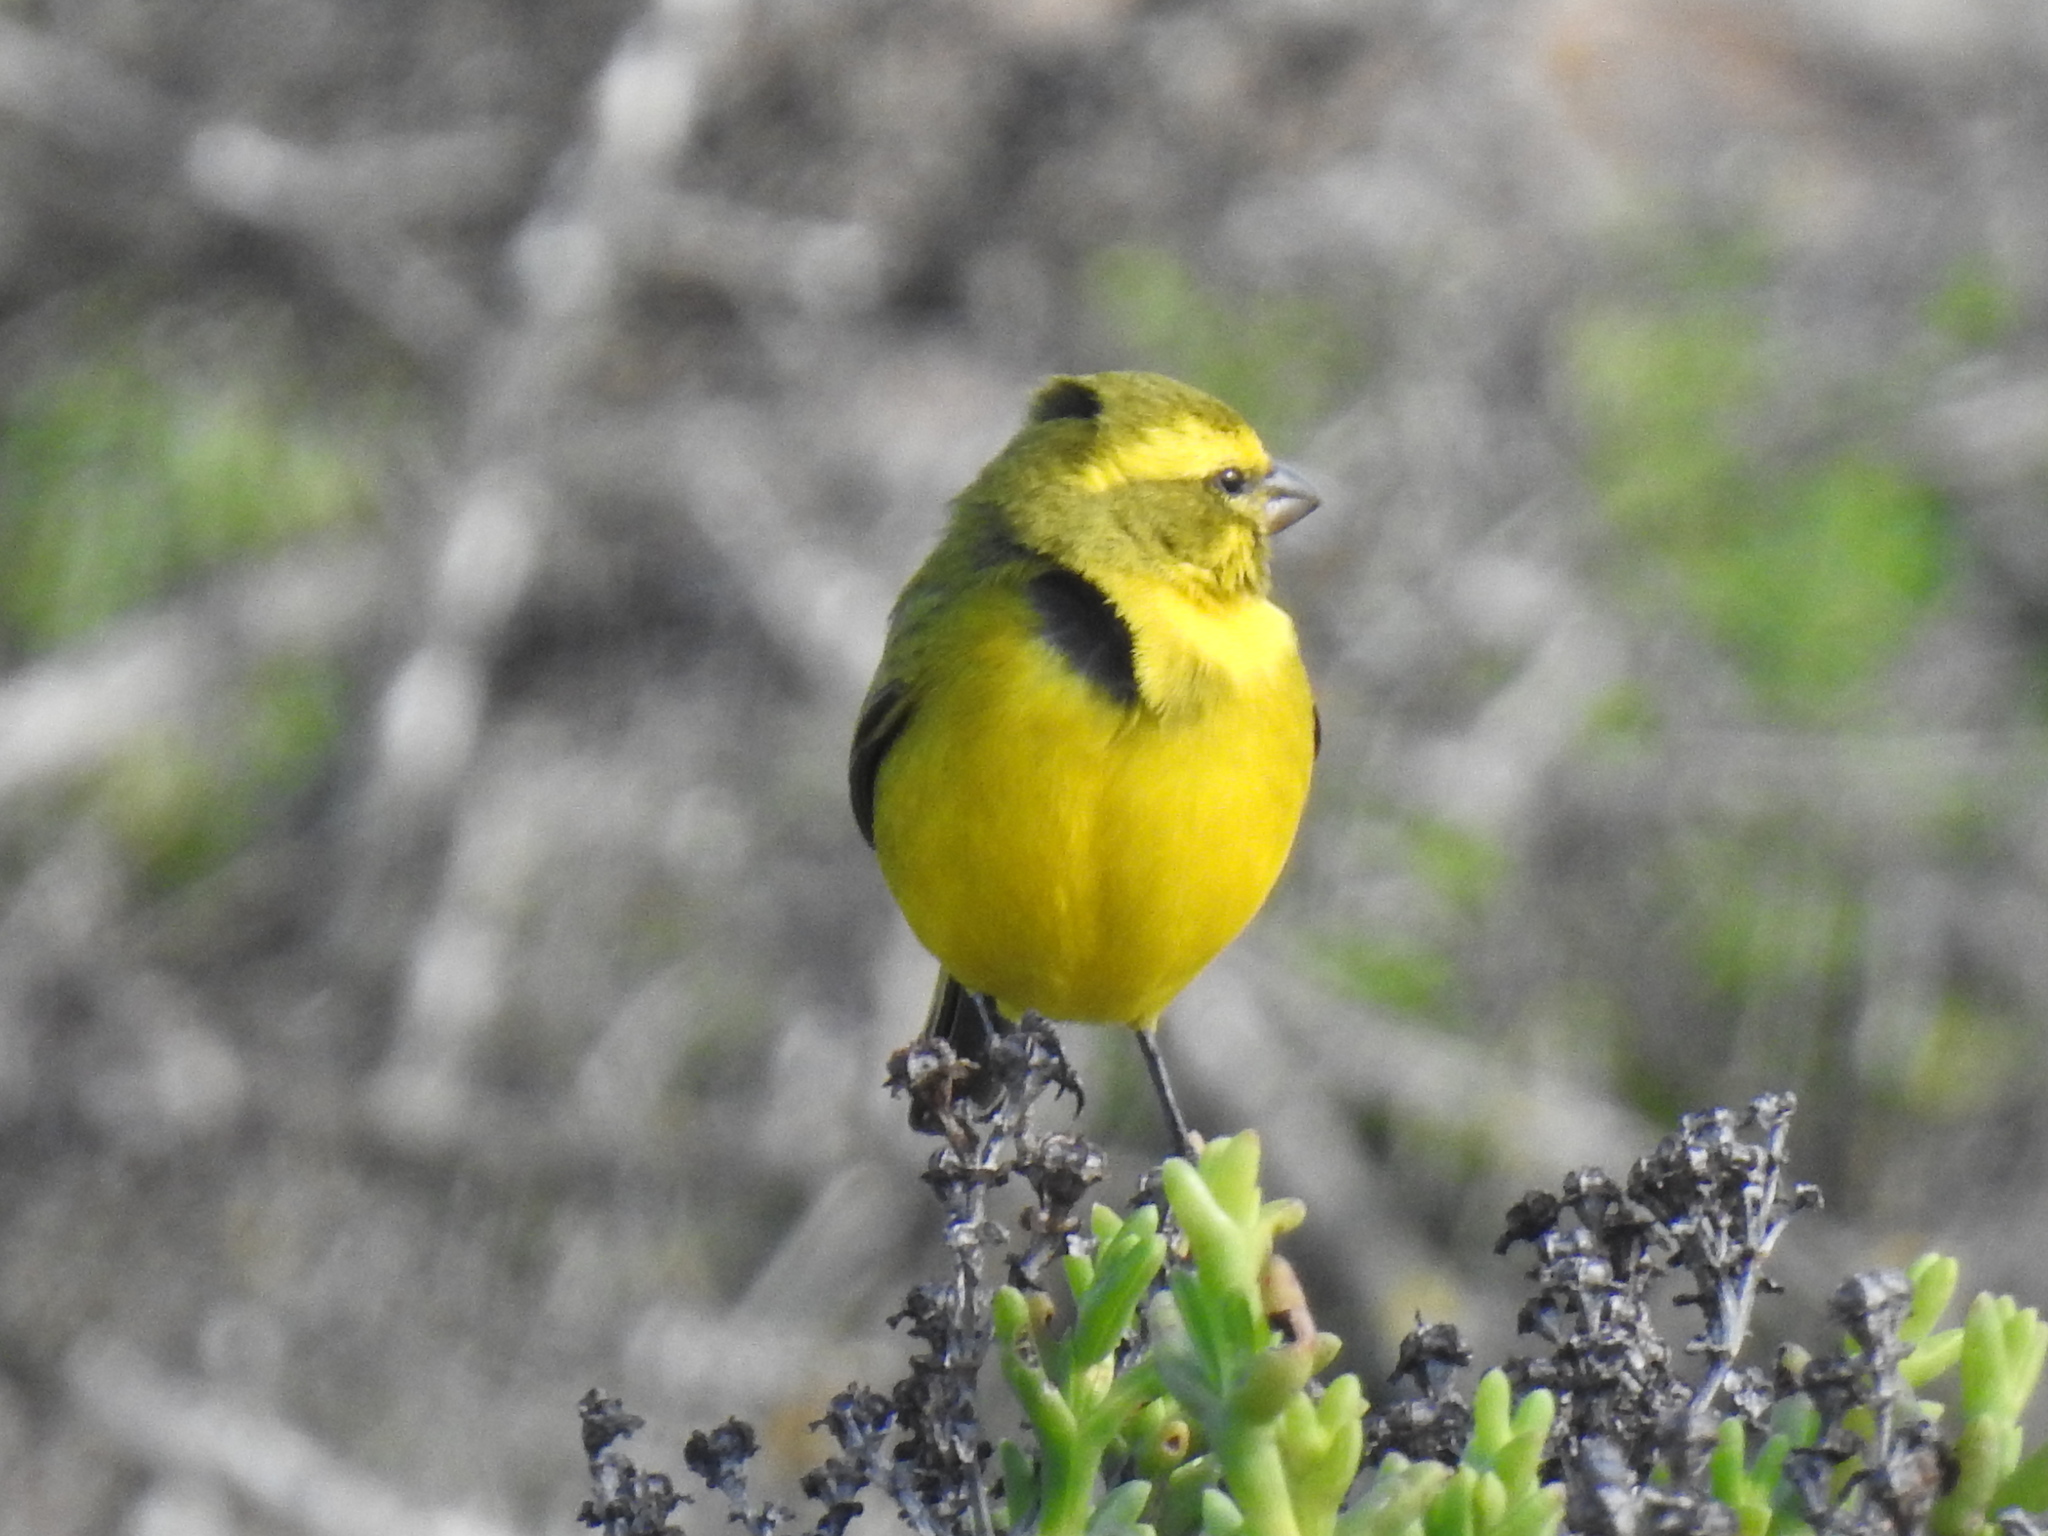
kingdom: Animalia
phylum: Chordata
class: Aves
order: Passeriformes
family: Fringillidae
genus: Crithagra
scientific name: Crithagra flaviventris
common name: Yellow canary
